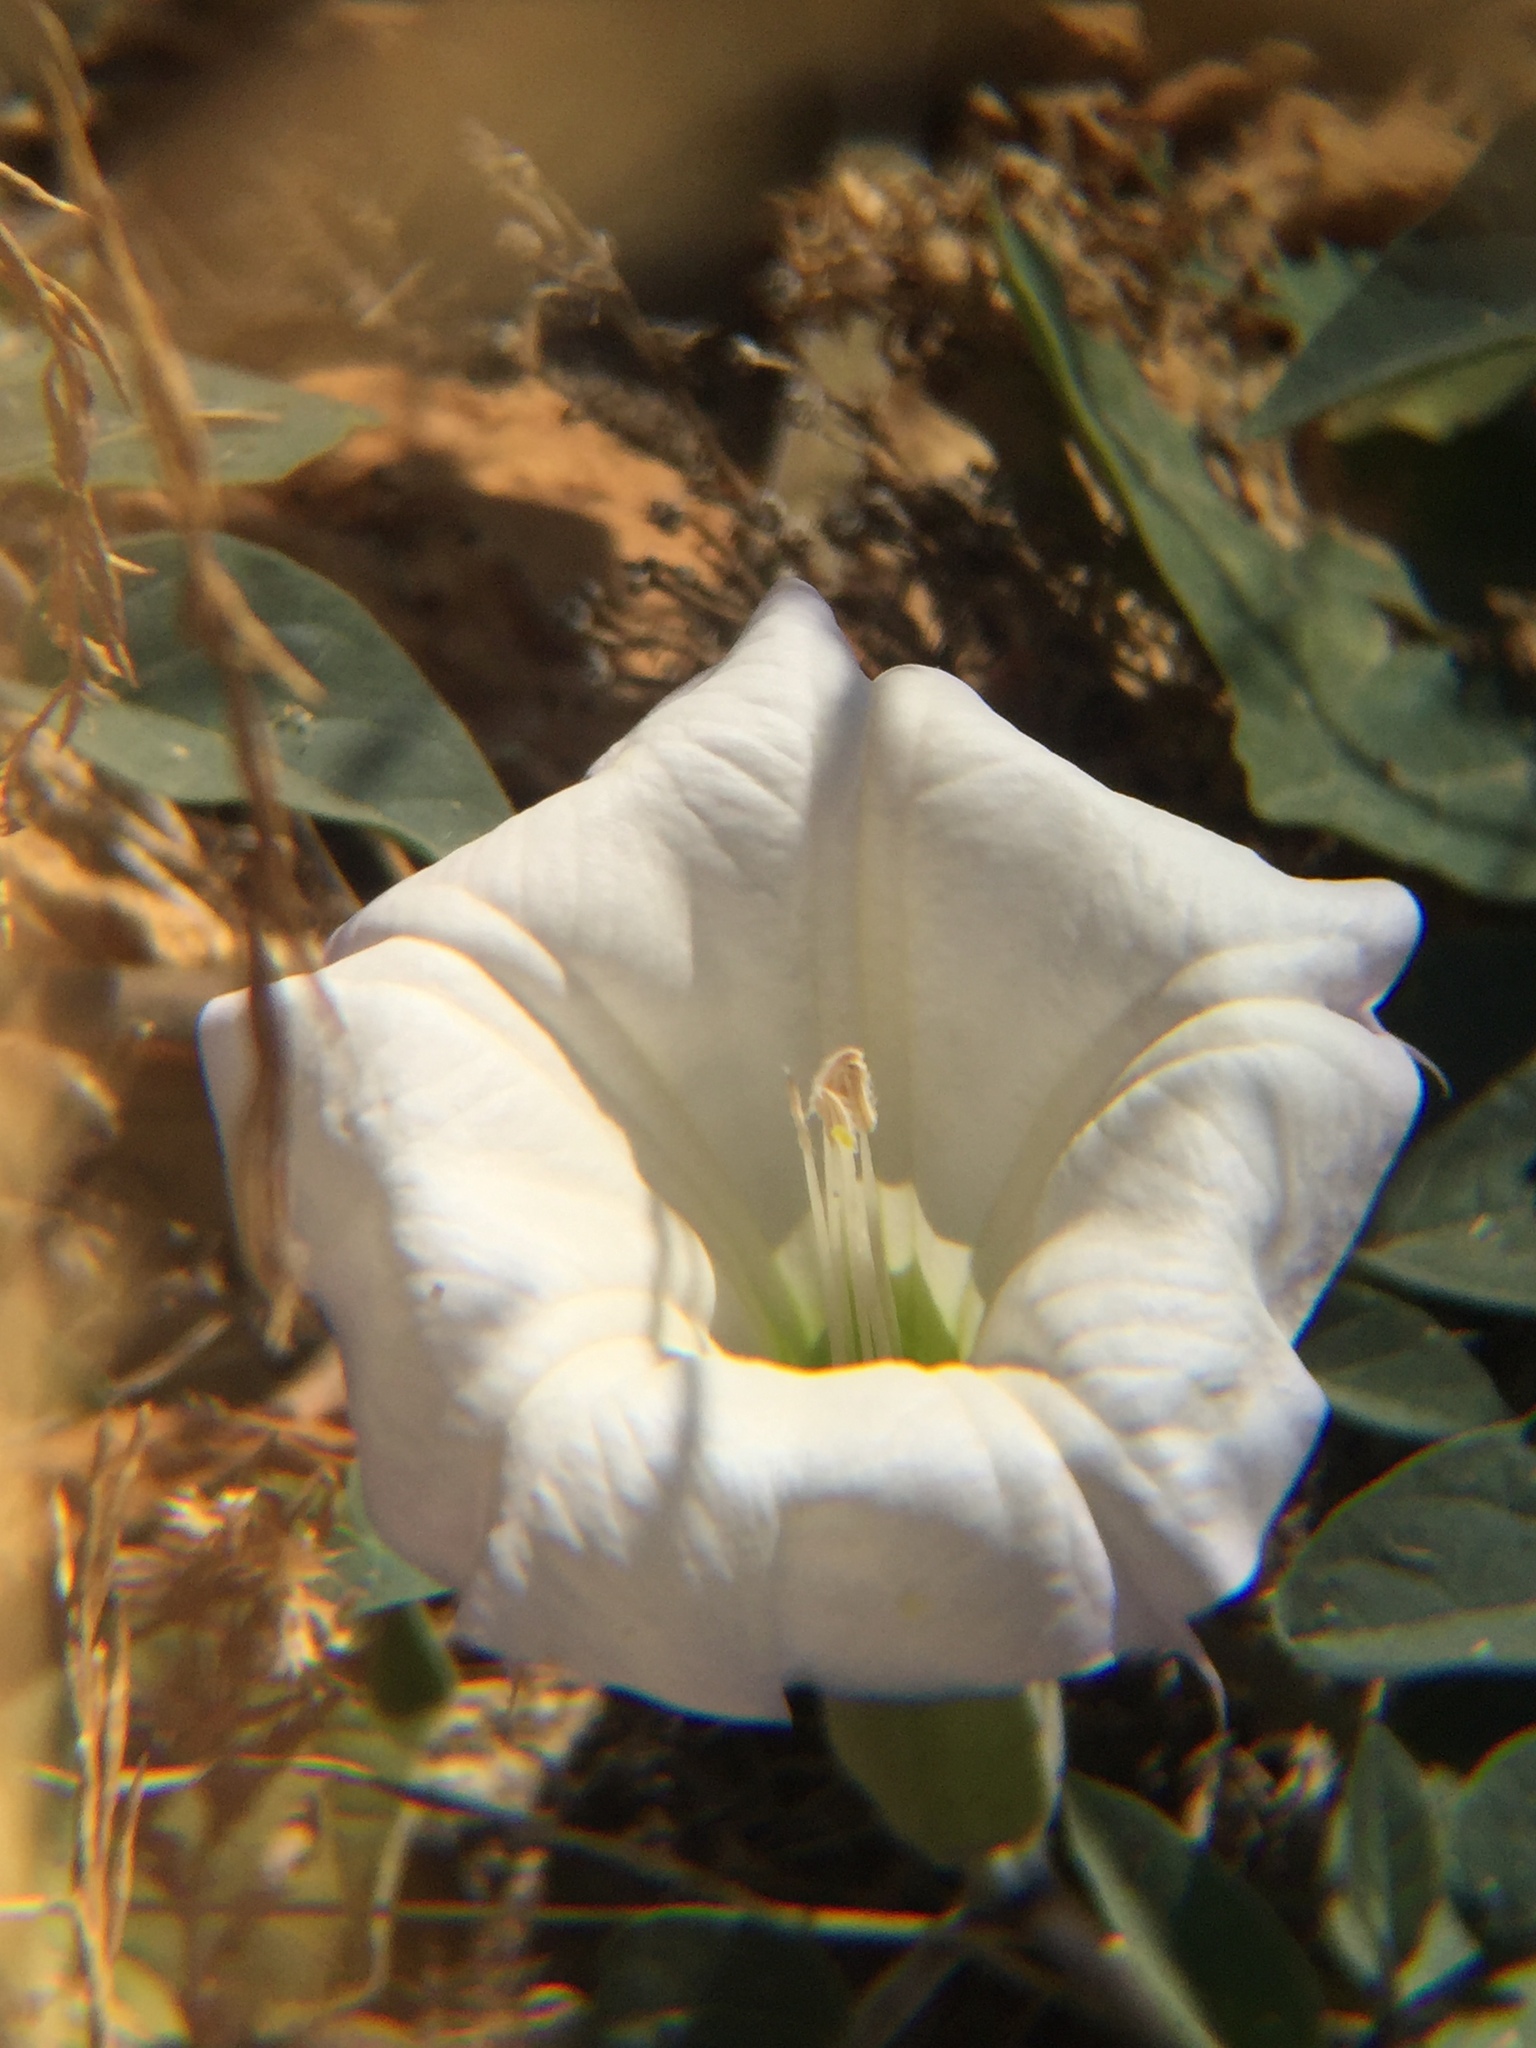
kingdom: Plantae
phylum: Tracheophyta
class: Magnoliopsida
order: Solanales
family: Solanaceae
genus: Datura
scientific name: Datura wrightii
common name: Sacred thorn-apple
